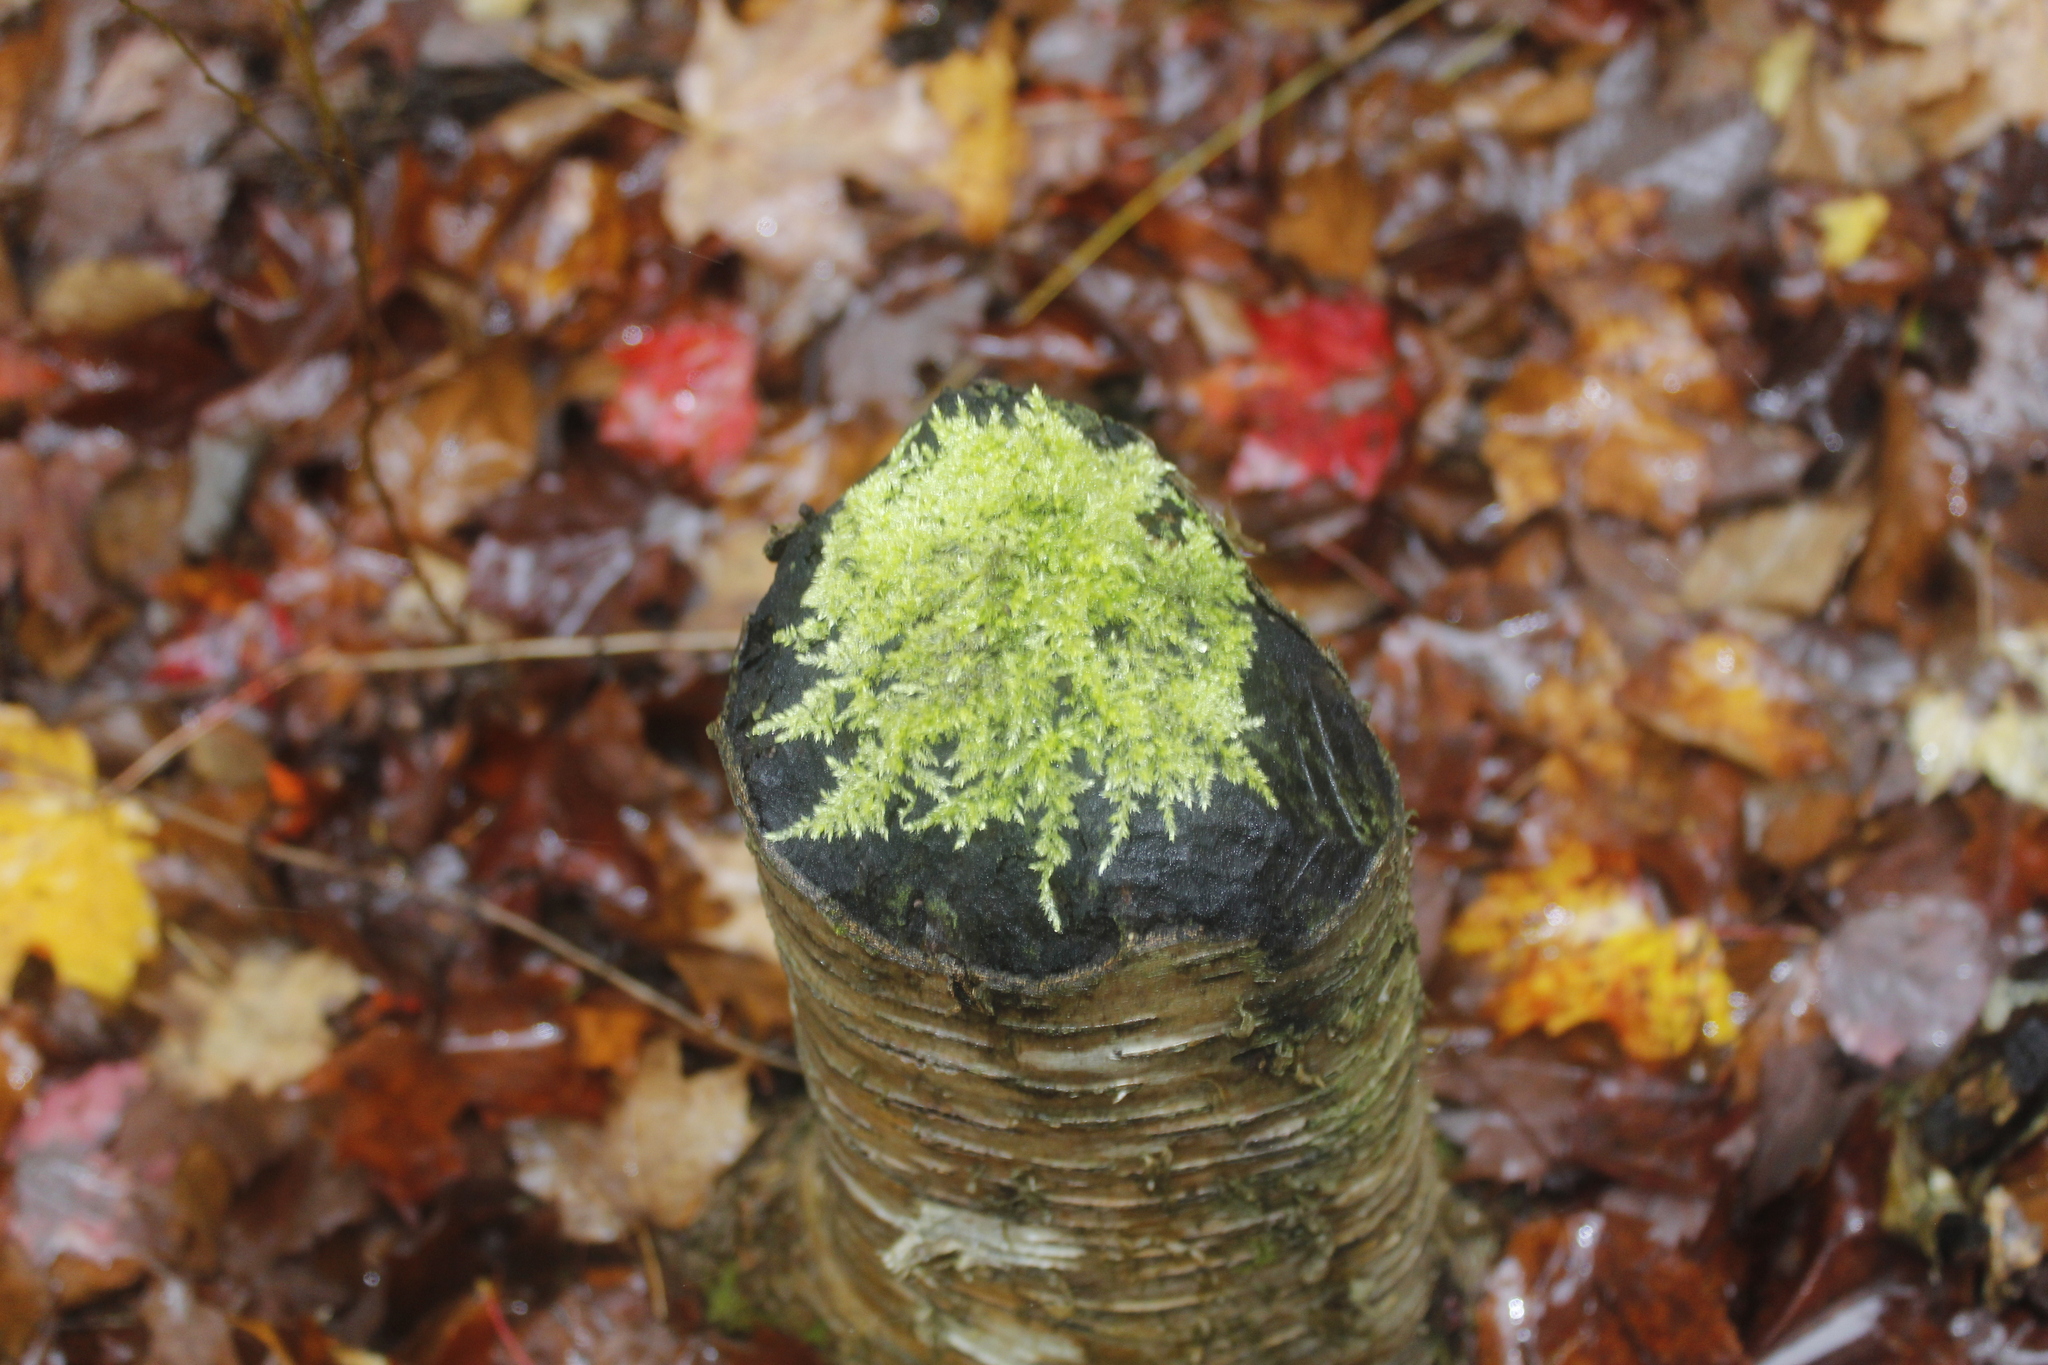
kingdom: Animalia
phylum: Chordata
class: Mammalia
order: Rodentia
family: Castoridae
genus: Castor
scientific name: Castor canadensis
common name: American beaver
